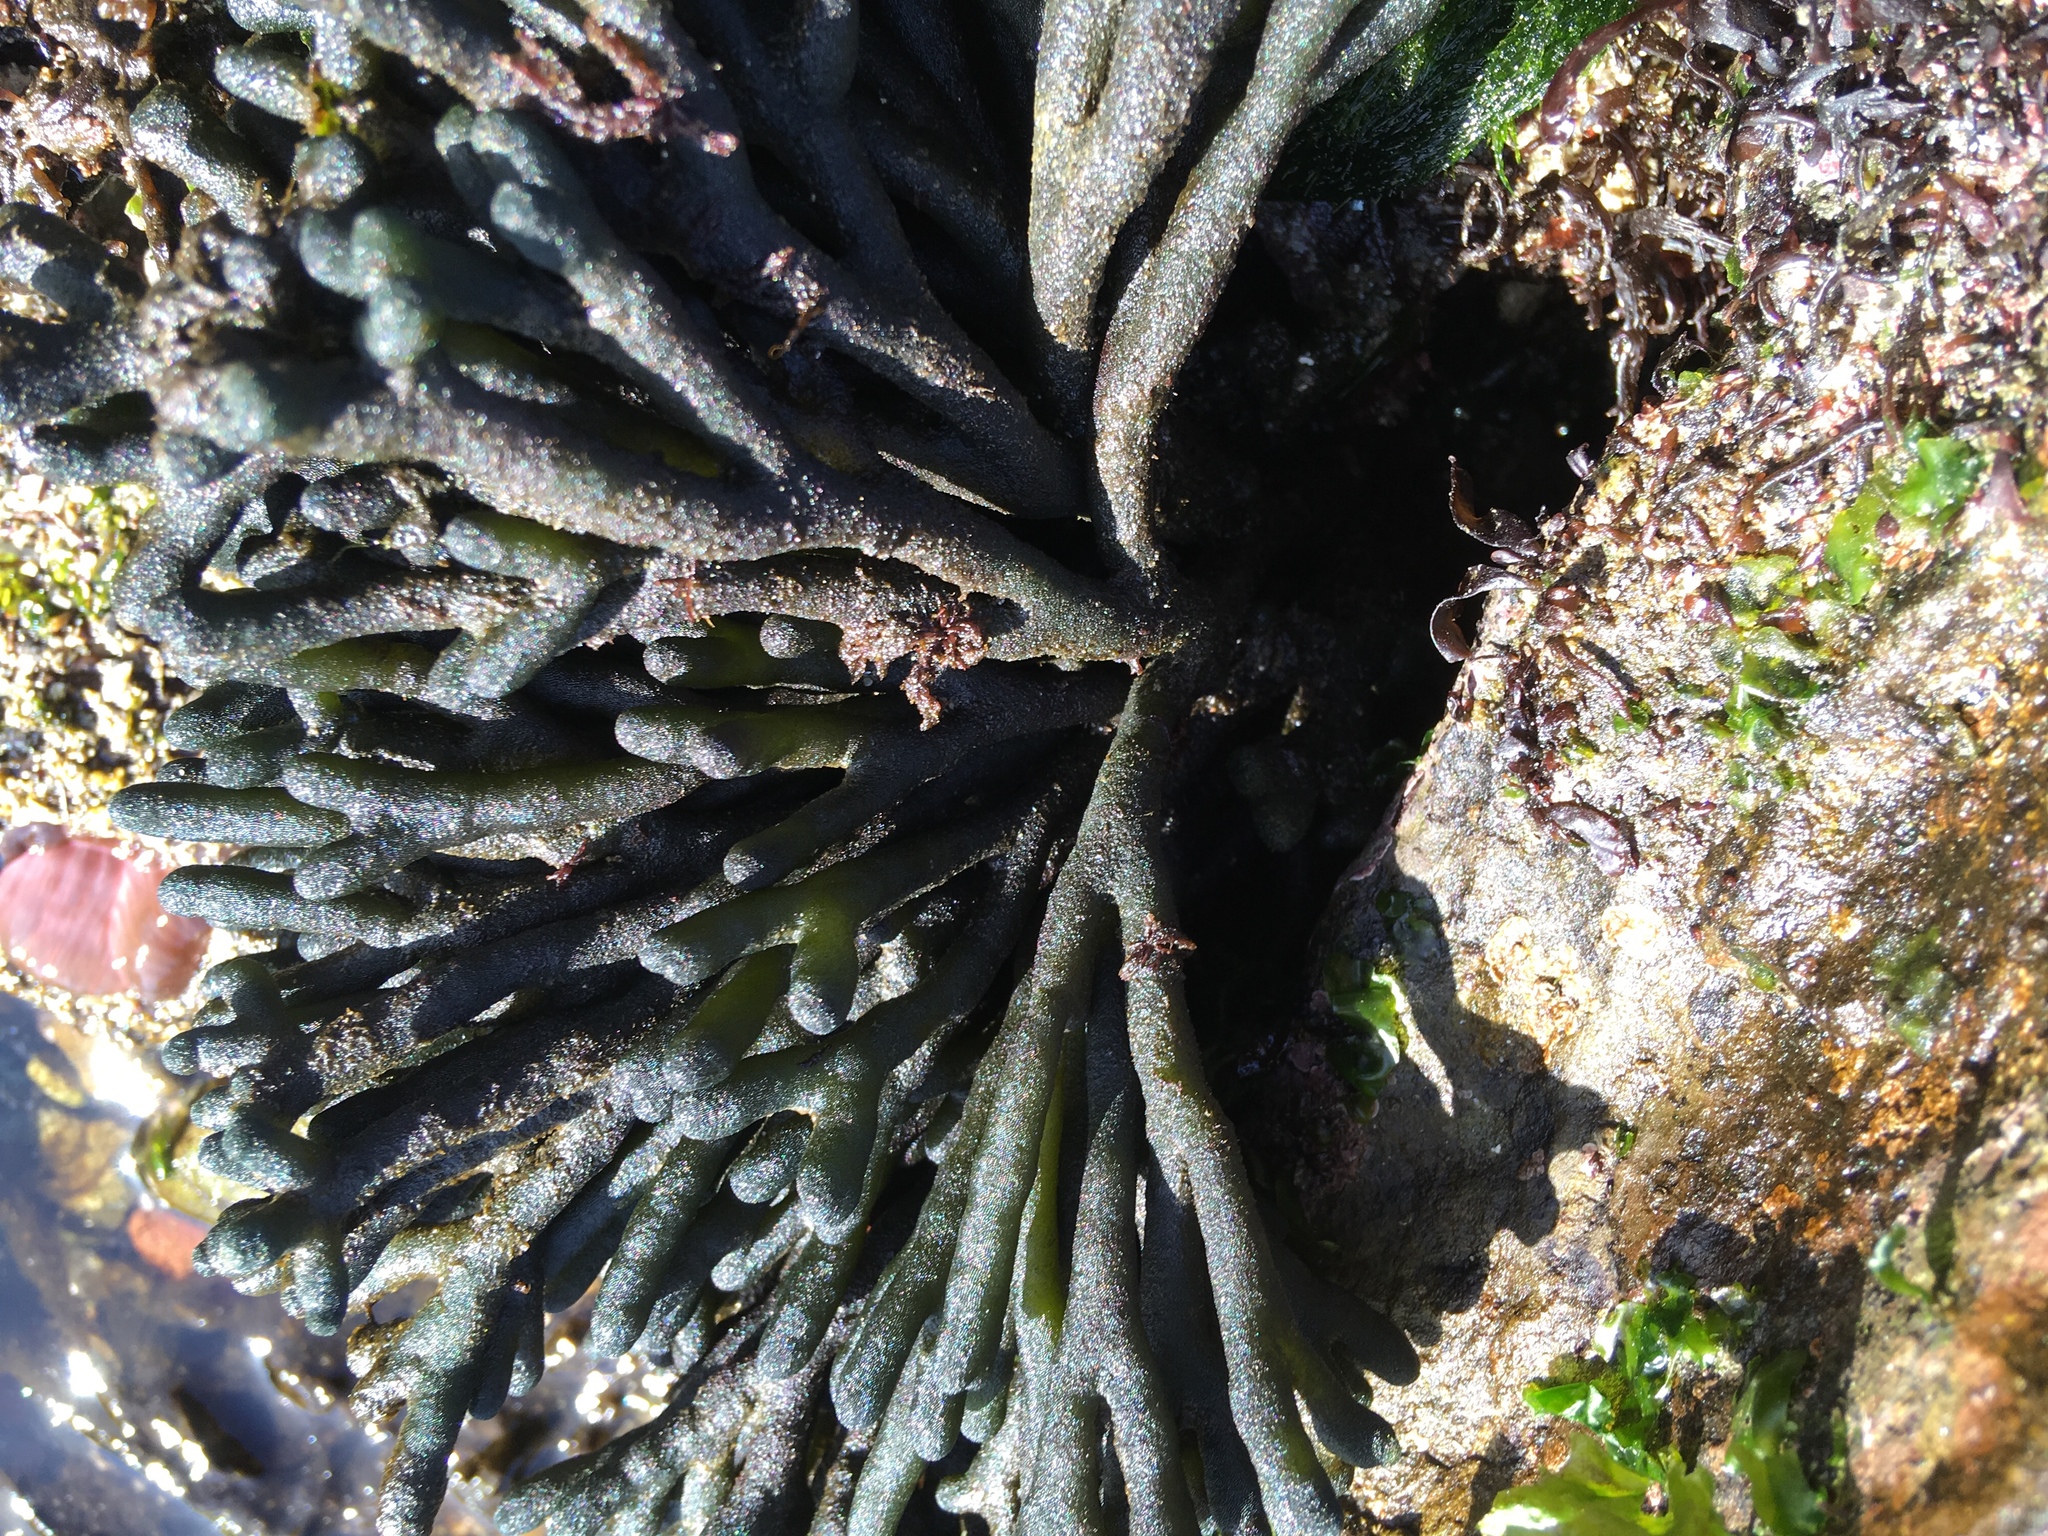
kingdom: Plantae
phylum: Chlorophyta
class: Ulvophyceae
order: Bryopsidales
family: Codiaceae
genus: Codium
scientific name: Codium fragile
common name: Dead man's fingers
